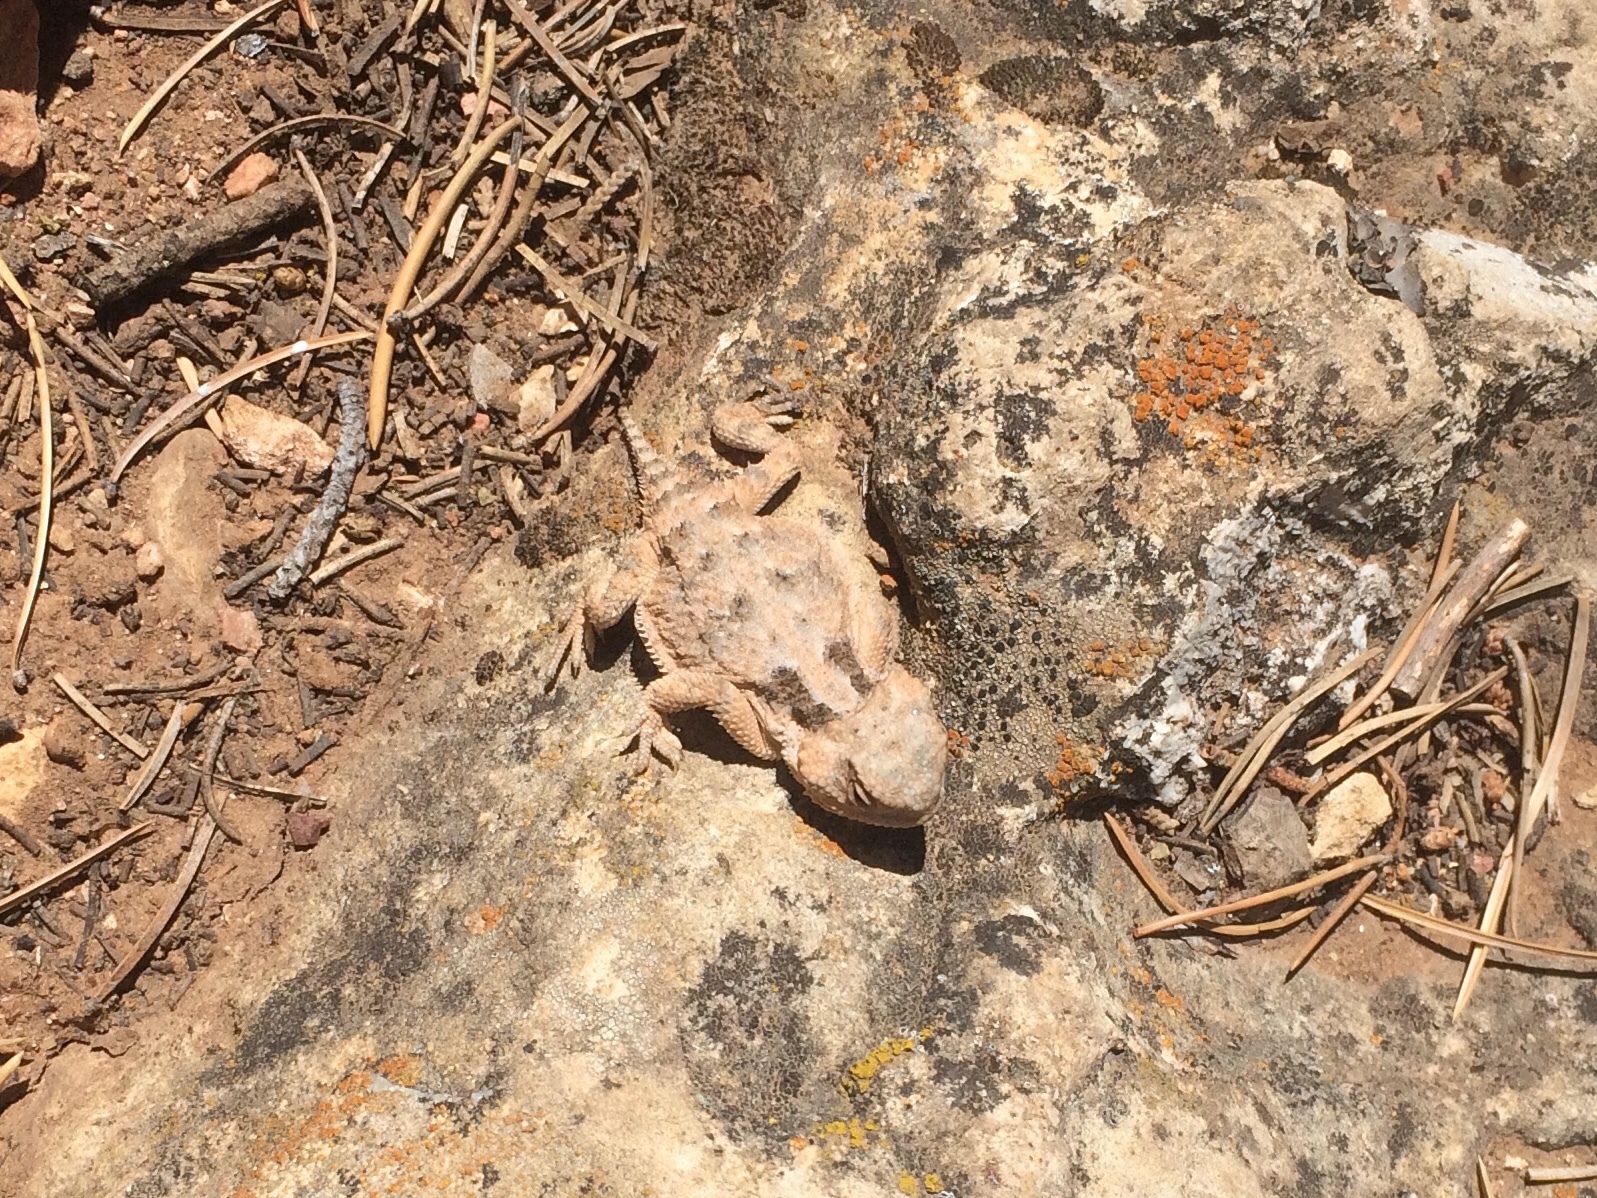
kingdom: Animalia
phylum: Chordata
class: Squamata
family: Phrynosomatidae
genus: Phrynosoma
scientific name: Phrynosoma hernandesi
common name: Greater short-horned lizard
